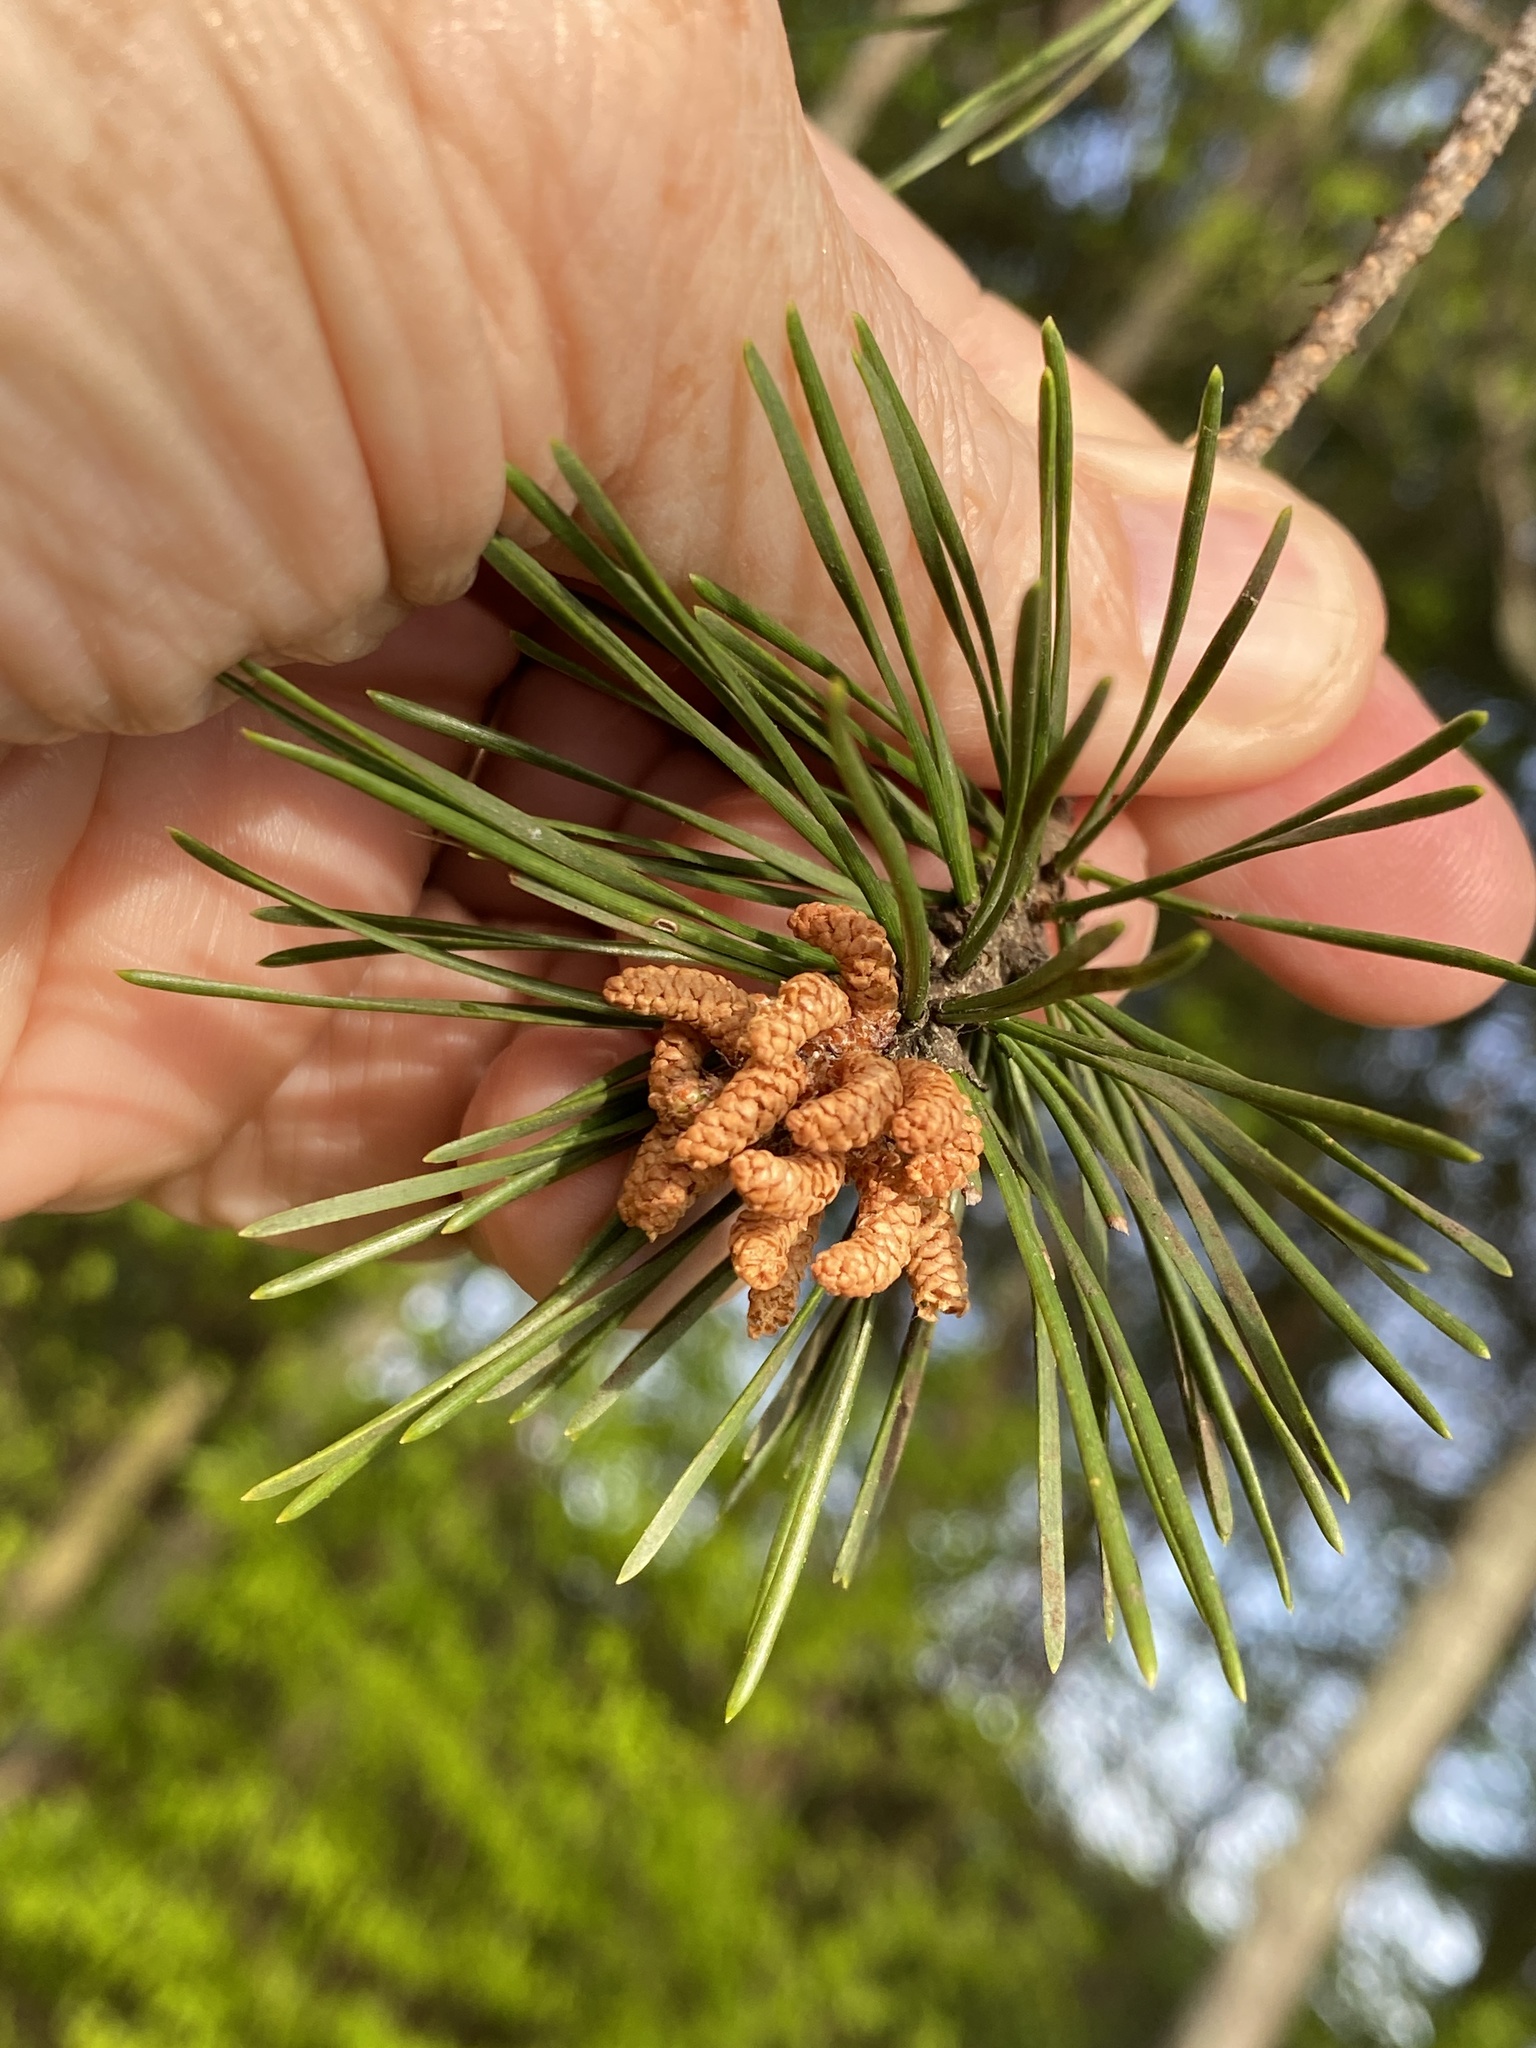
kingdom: Plantae
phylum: Tracheophyta
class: Pinopsida
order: Pinales
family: Pinaceae
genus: Pinus
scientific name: Pinus virginiana
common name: Scrub pine
